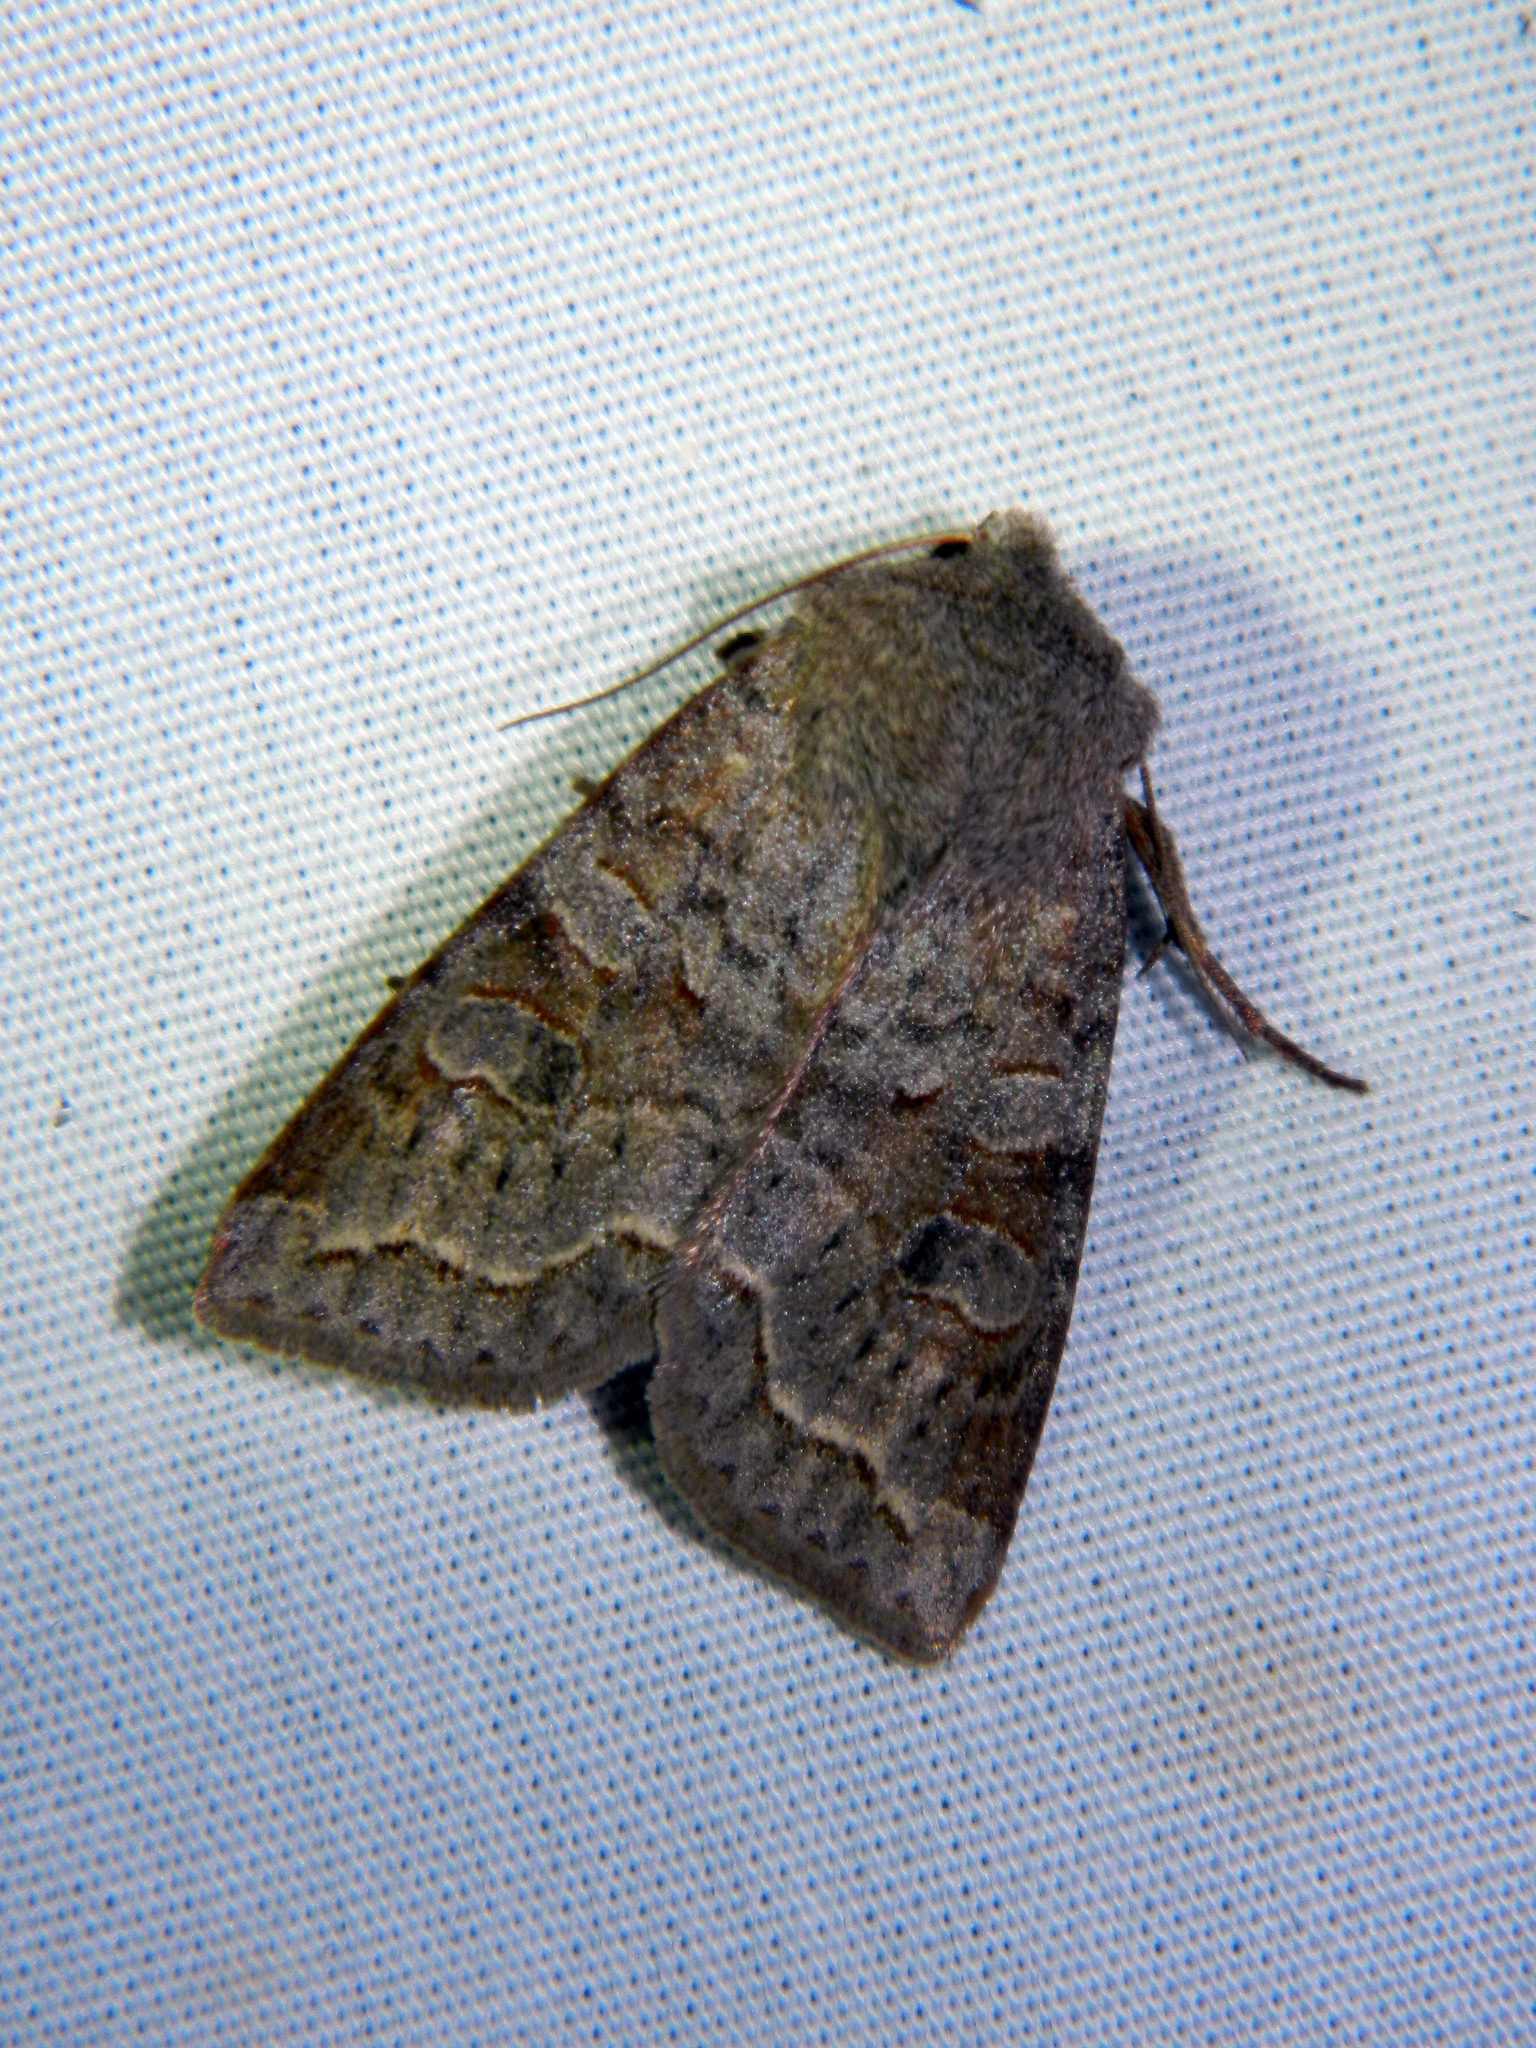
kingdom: Animalia
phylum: Arthropoda
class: Insecta
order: Lepidoptera
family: Noctuidae
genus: Orthosia
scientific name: Orthosia revicta
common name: Rusty whitesided caterpillar
